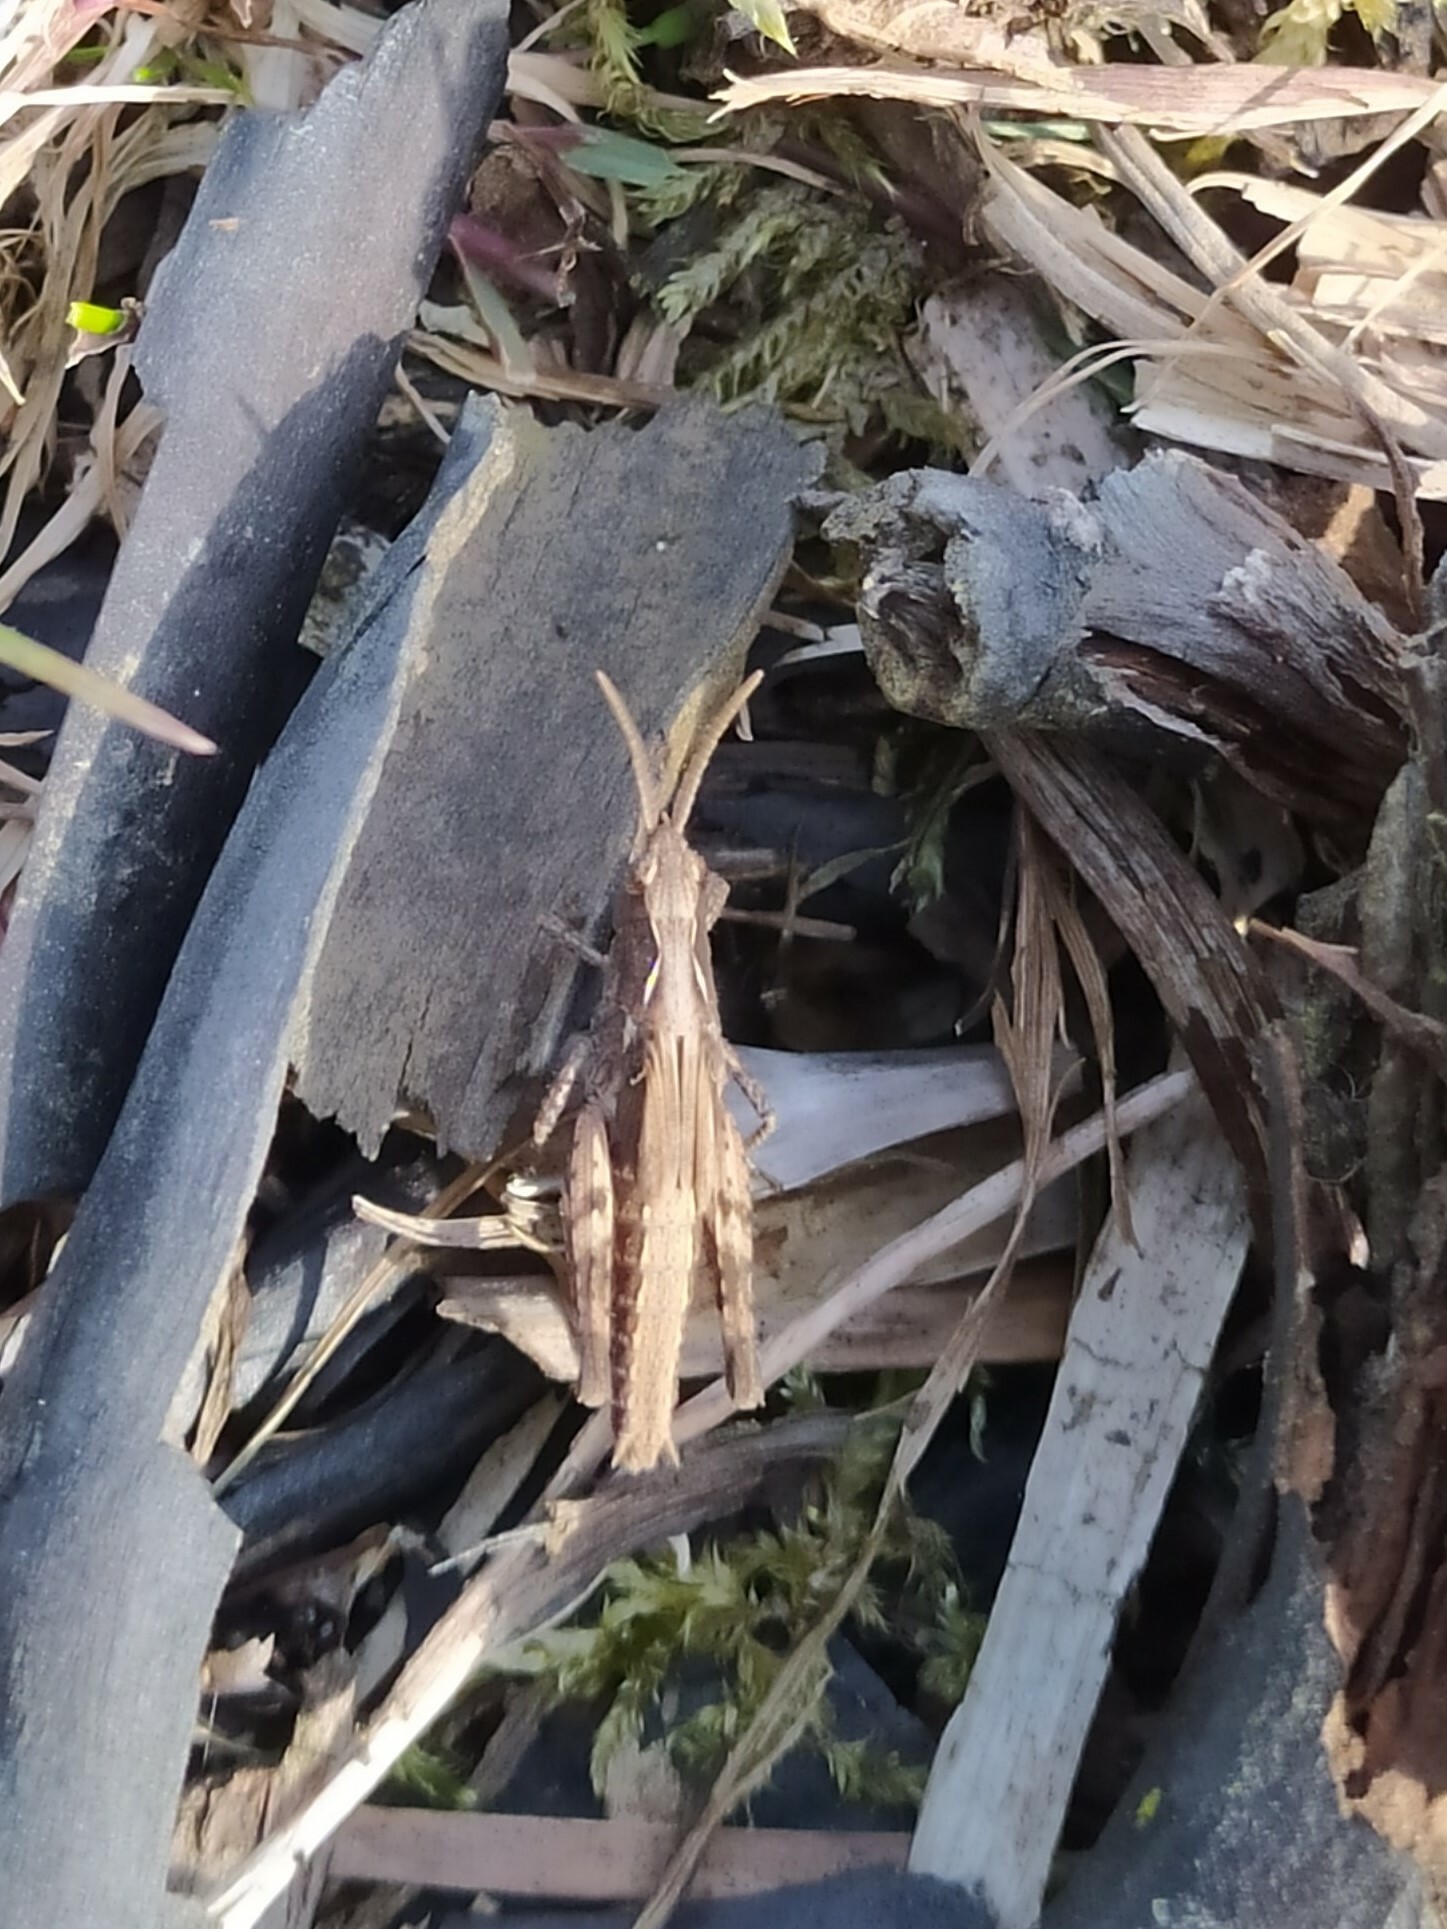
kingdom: Animalia
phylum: Arthropoda
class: Insecta
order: Orthoptera
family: Acrididae
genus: Chorthippus
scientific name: Chorthippus brunneus
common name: Field grasshopper
